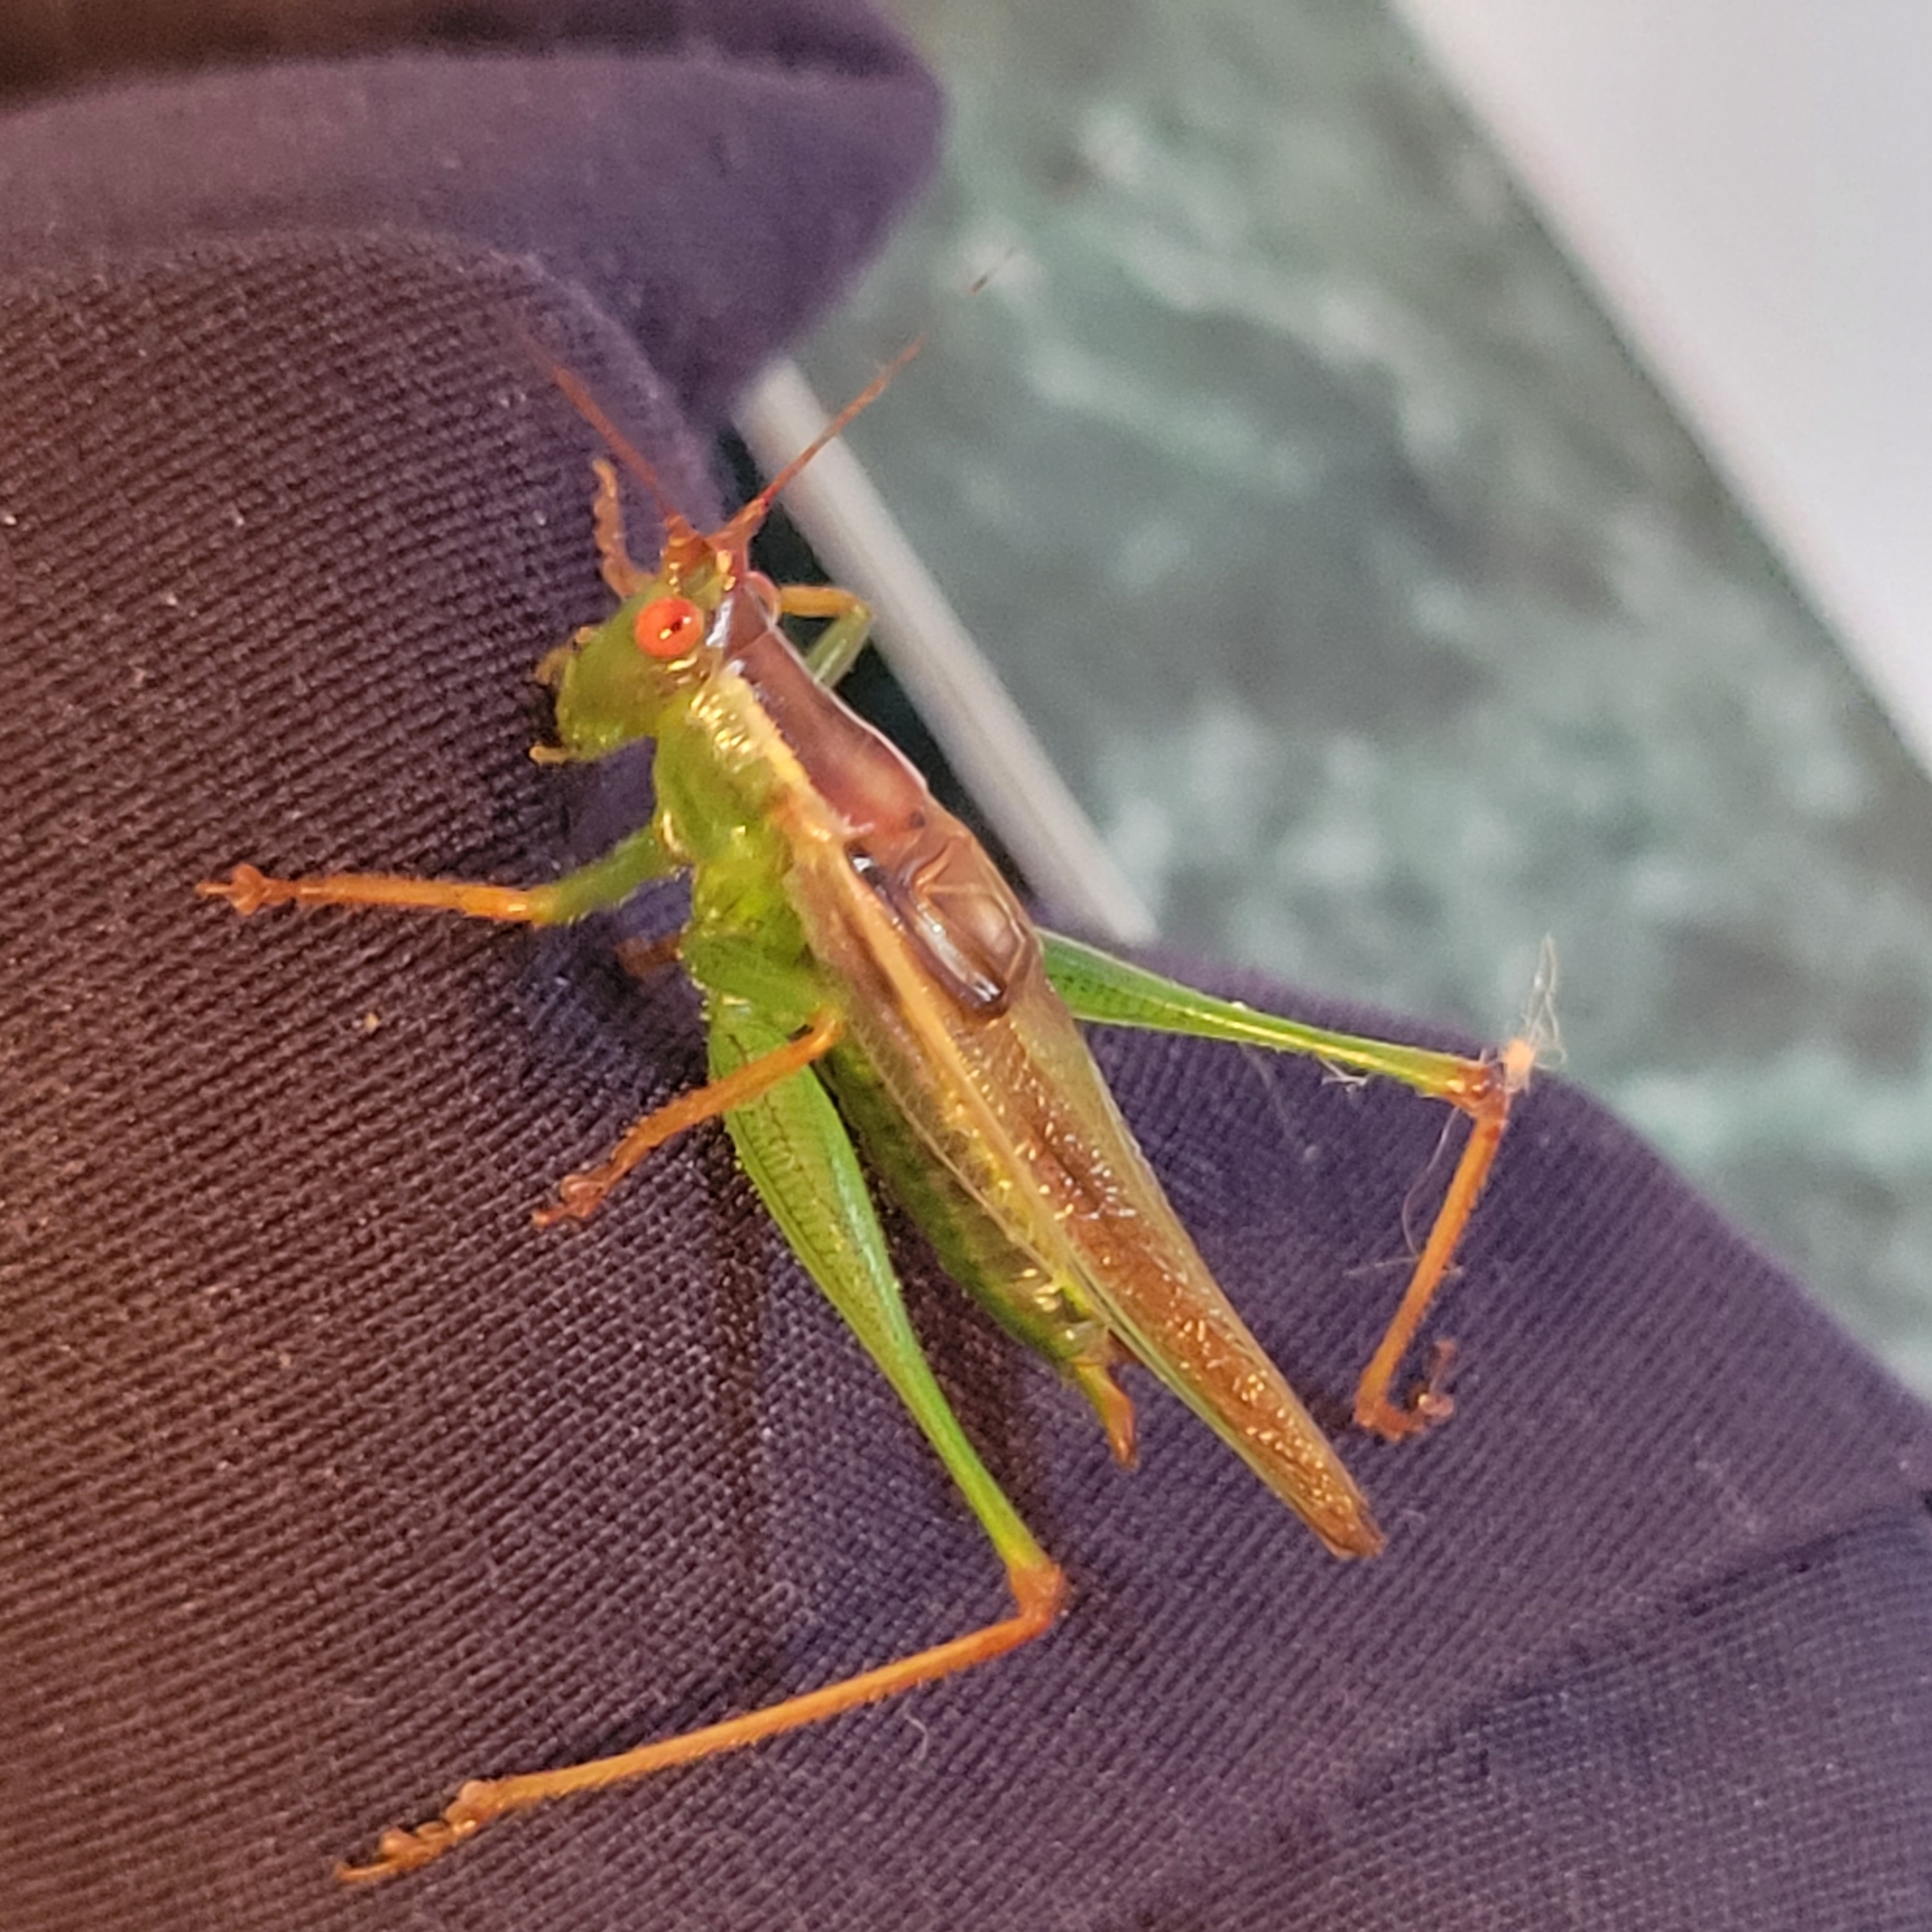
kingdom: Animalia
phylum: Arthropoda
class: Insecta
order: Orthoptera
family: Tettigoniidae
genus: Orchelimum
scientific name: Orchelimum minor
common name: Lesser pine meadow katydid
